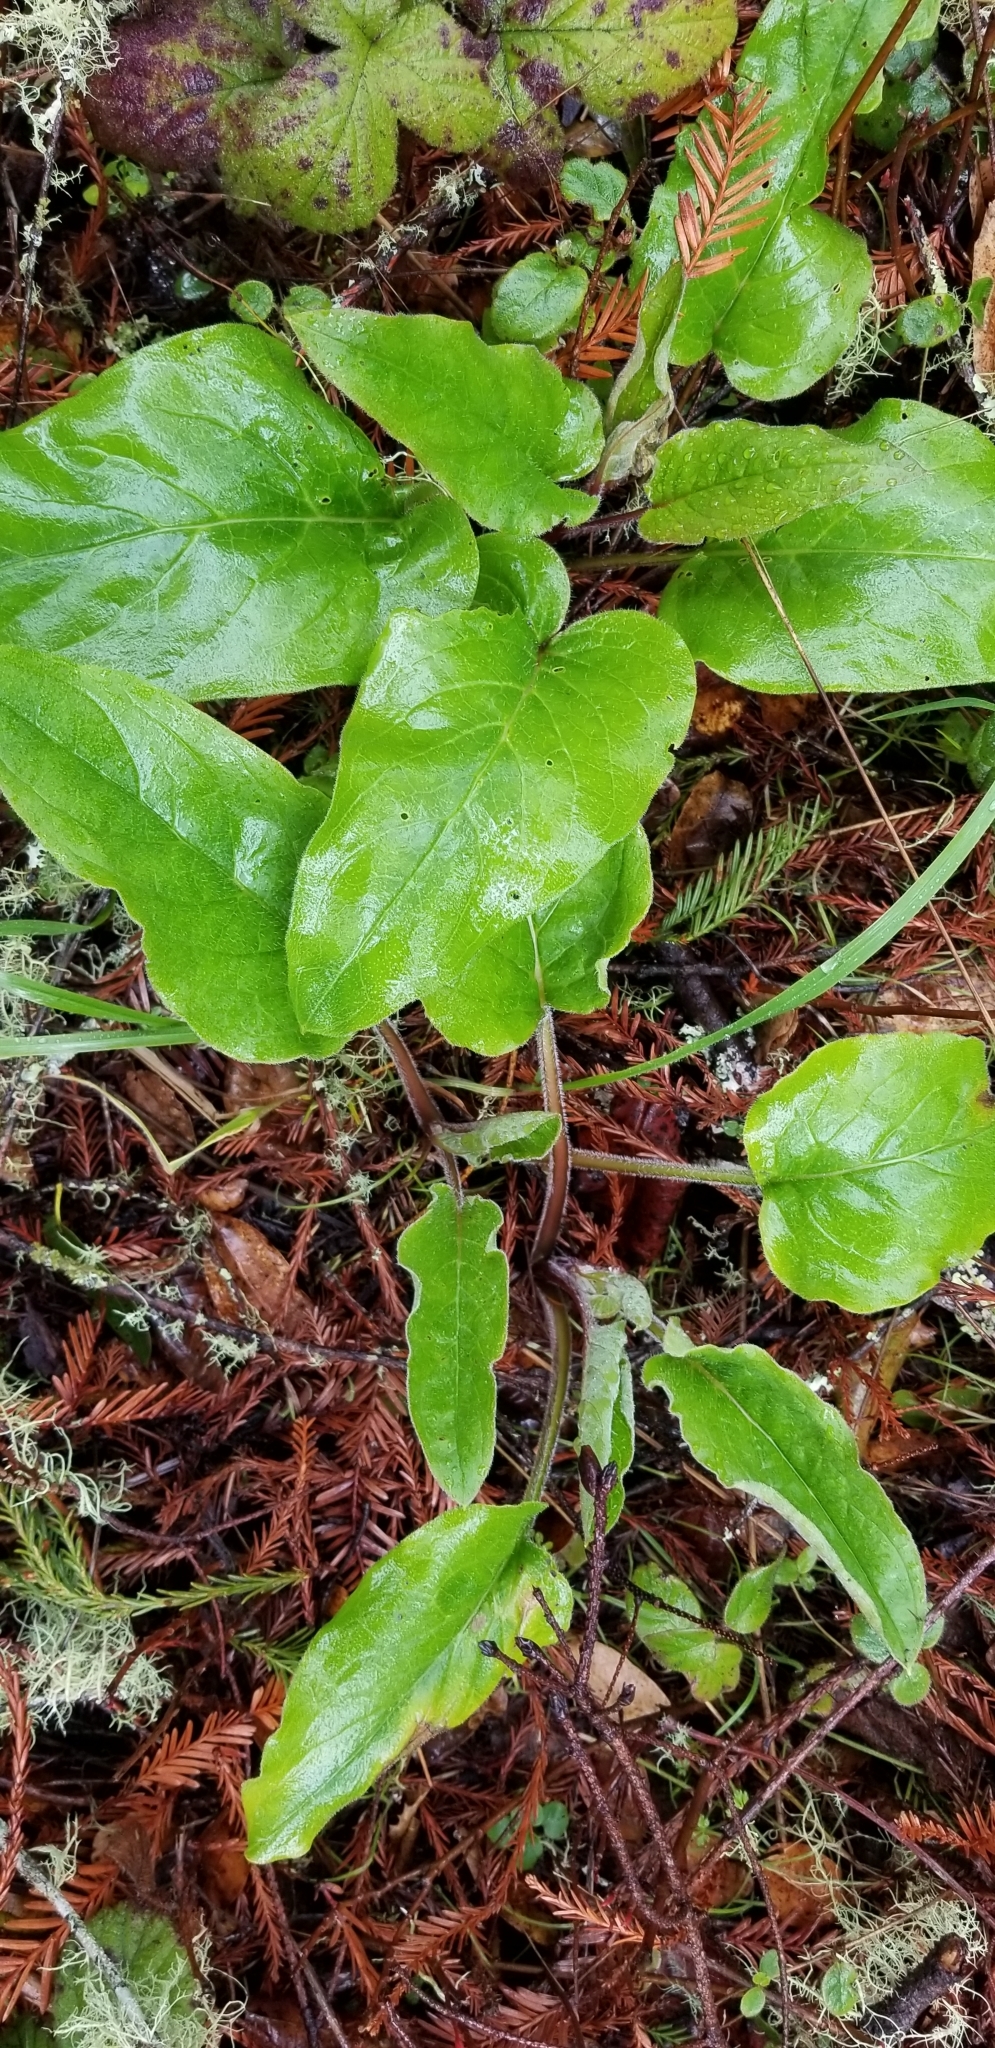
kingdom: Plantae
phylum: Tracheophyta
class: Magnoliopsida
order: Boraginales
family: Boraginaceae
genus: Adelinia
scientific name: Adelinia grande
